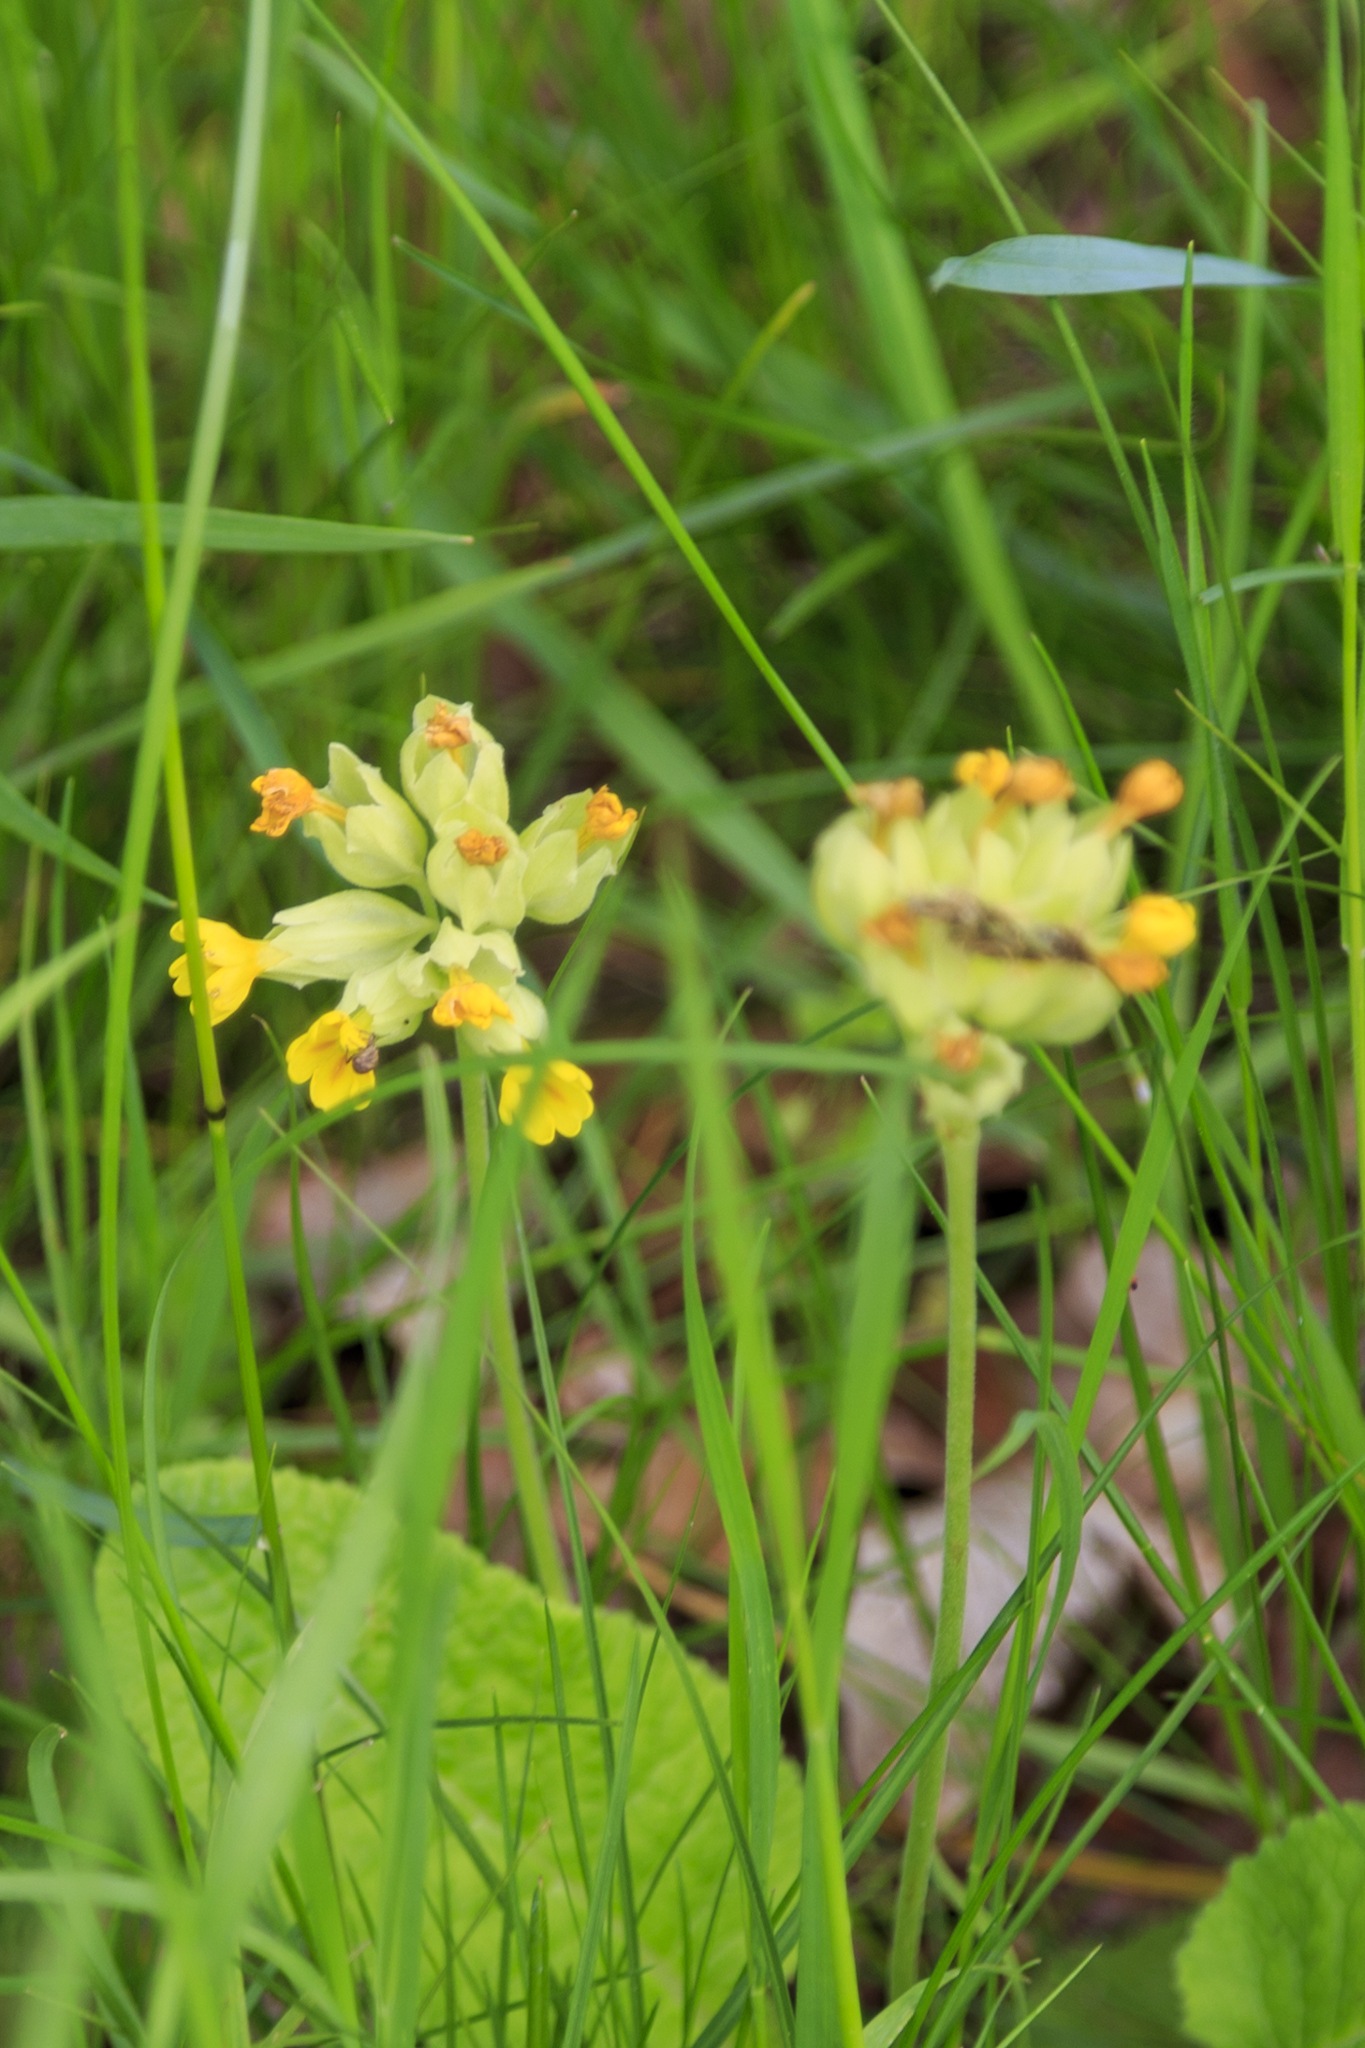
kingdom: Plantae
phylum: Tracheophyta
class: Magnoliopsida
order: Ericales
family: Primulaceae
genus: Primula
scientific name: Primula veris
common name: Cowslip
